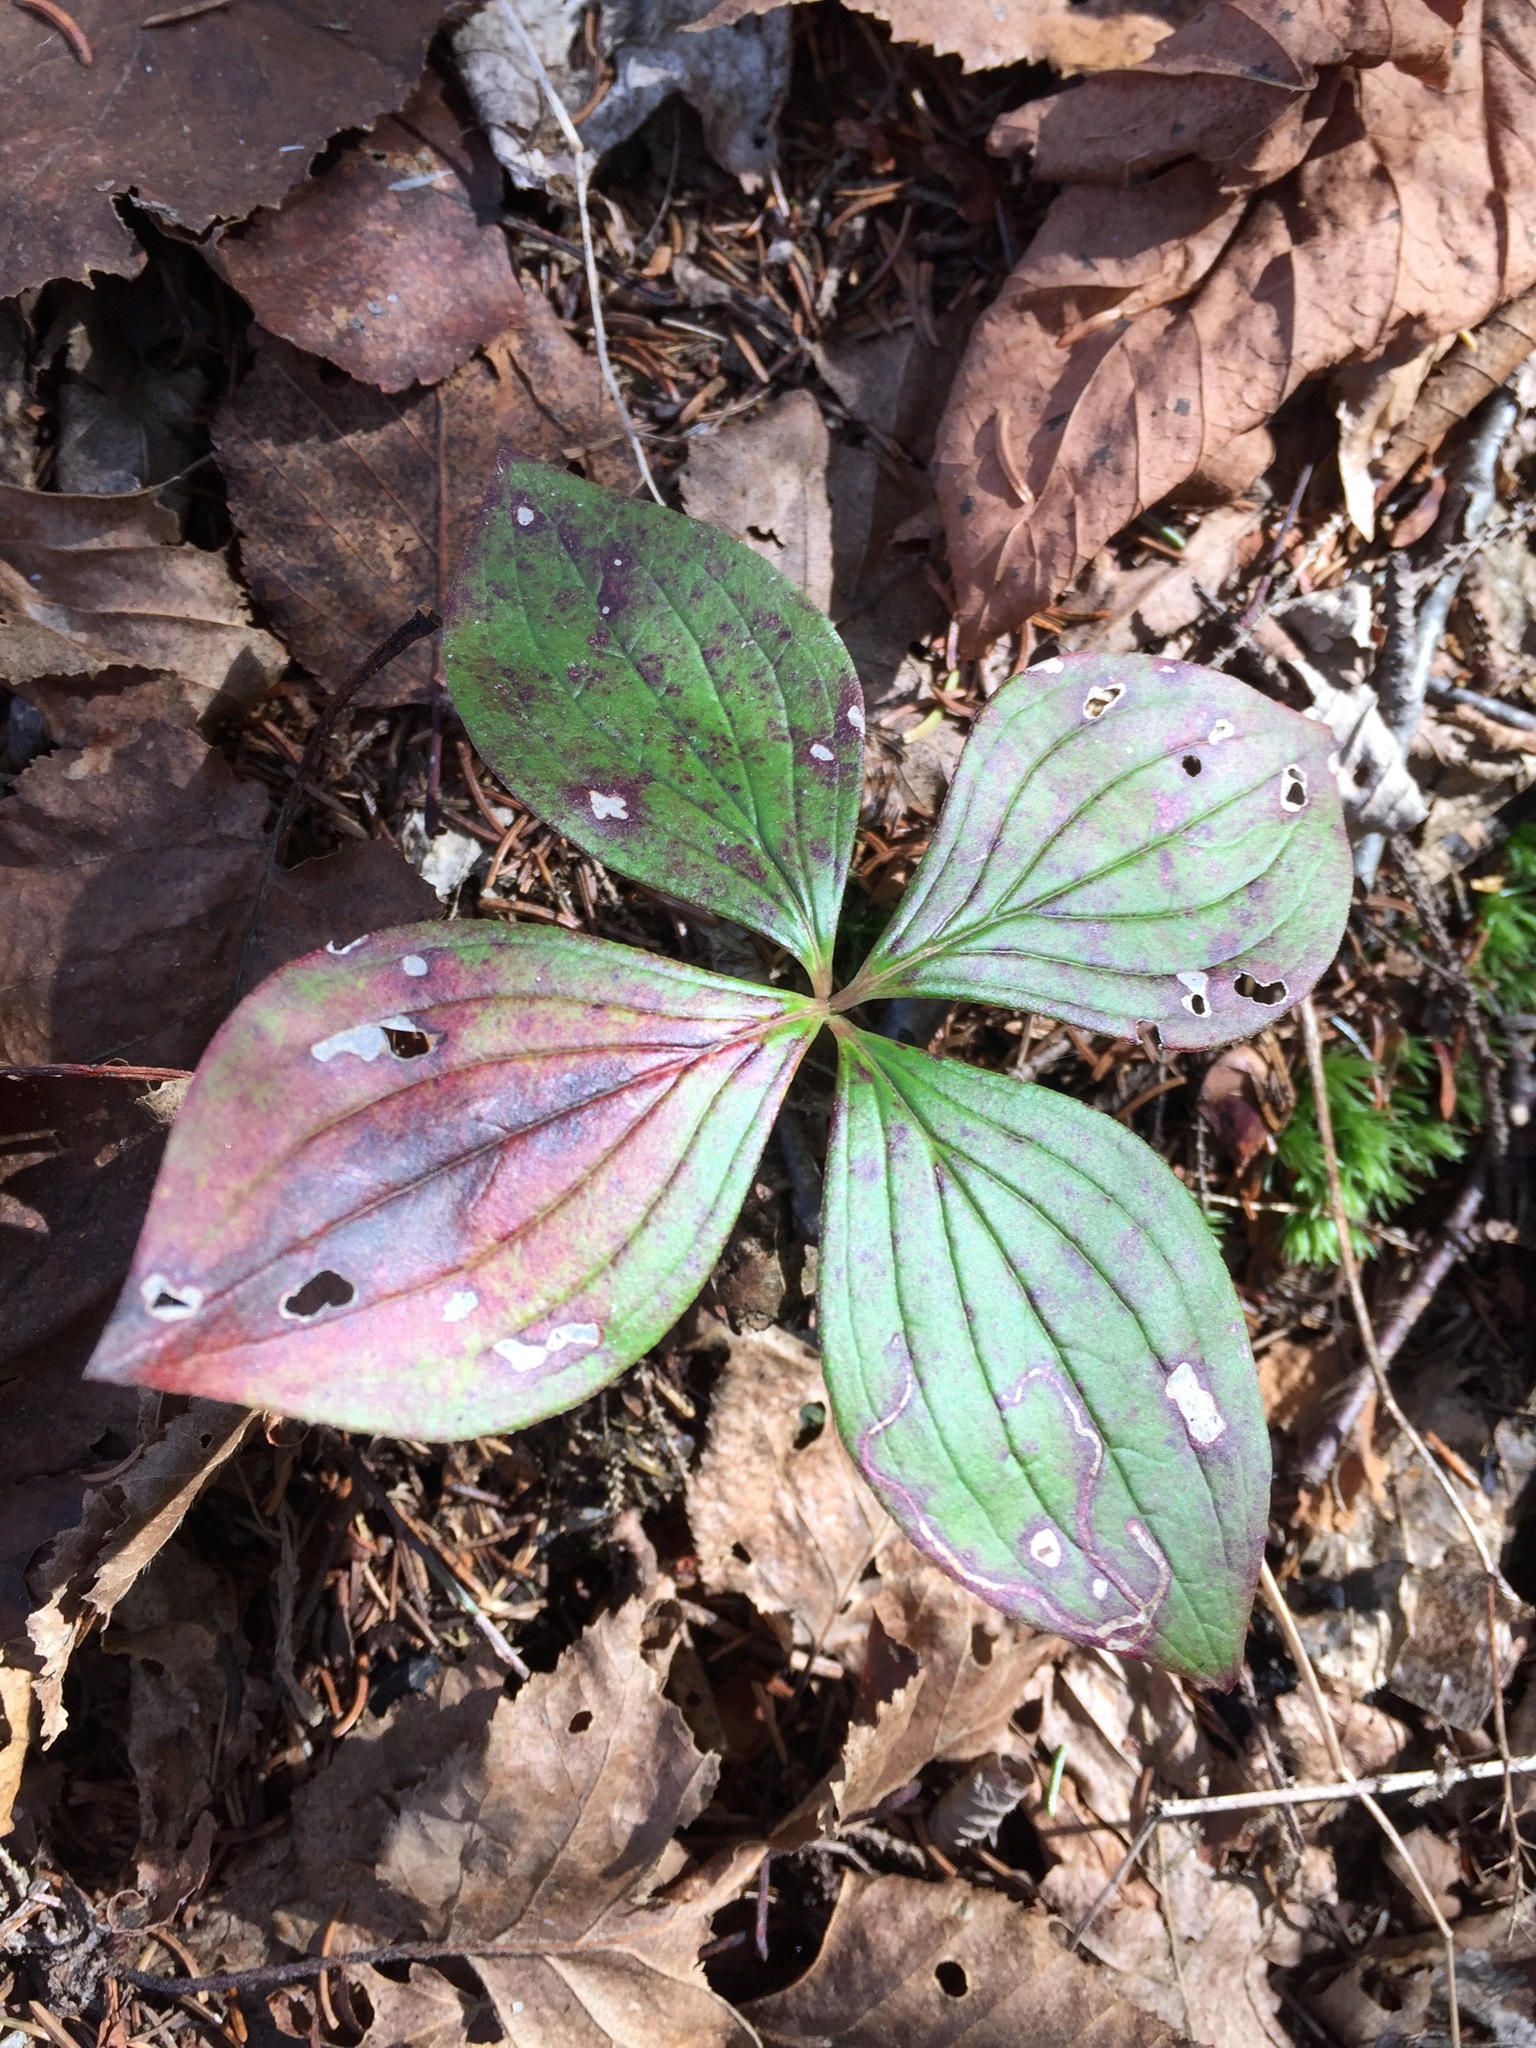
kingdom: Plantae
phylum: Tracheophyta
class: Magnoliopsida
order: Cornales
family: Cornaceae
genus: Cornus
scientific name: Cornus canadensis
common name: Creeping dogwood
